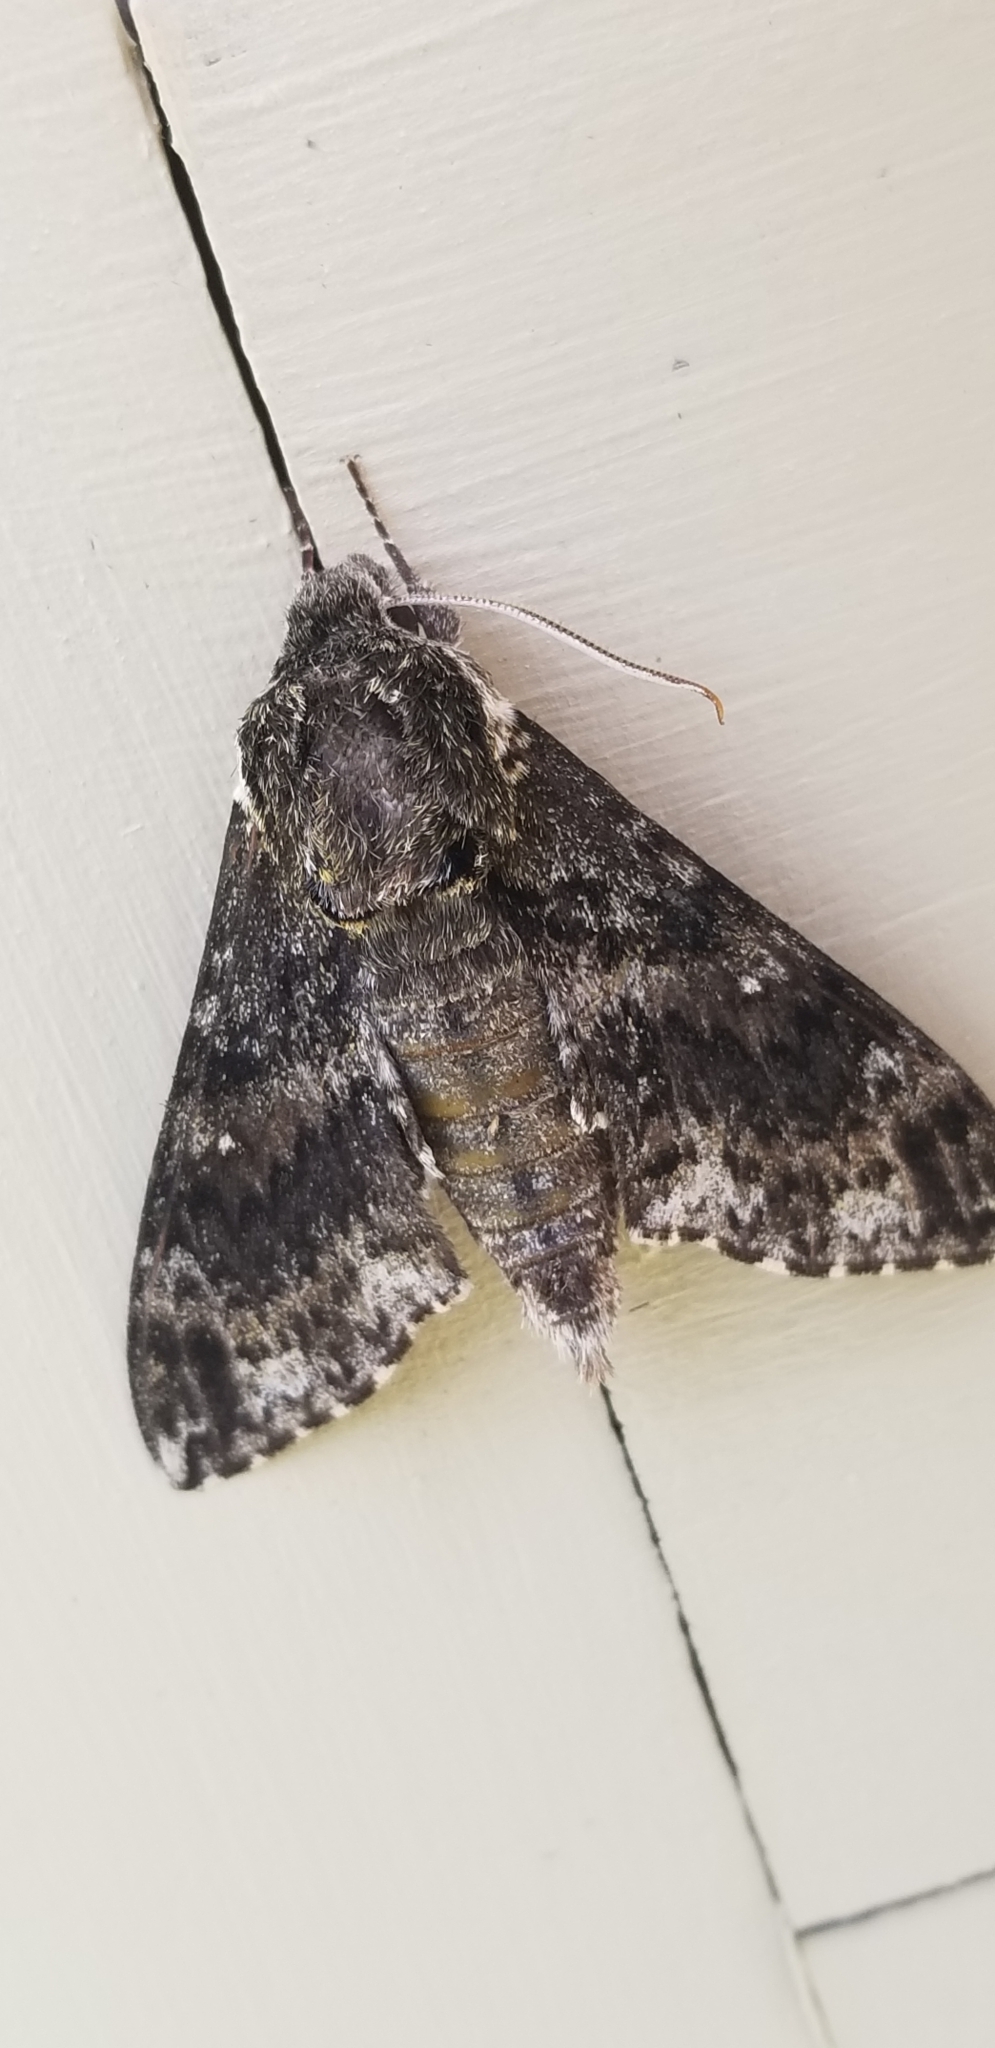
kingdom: Animalia
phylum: Arthropoda
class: Insecta
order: Lepidoptera
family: Sphingidae
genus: Dolba
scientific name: Dolba hyloeus
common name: Pawpaw sphinx
